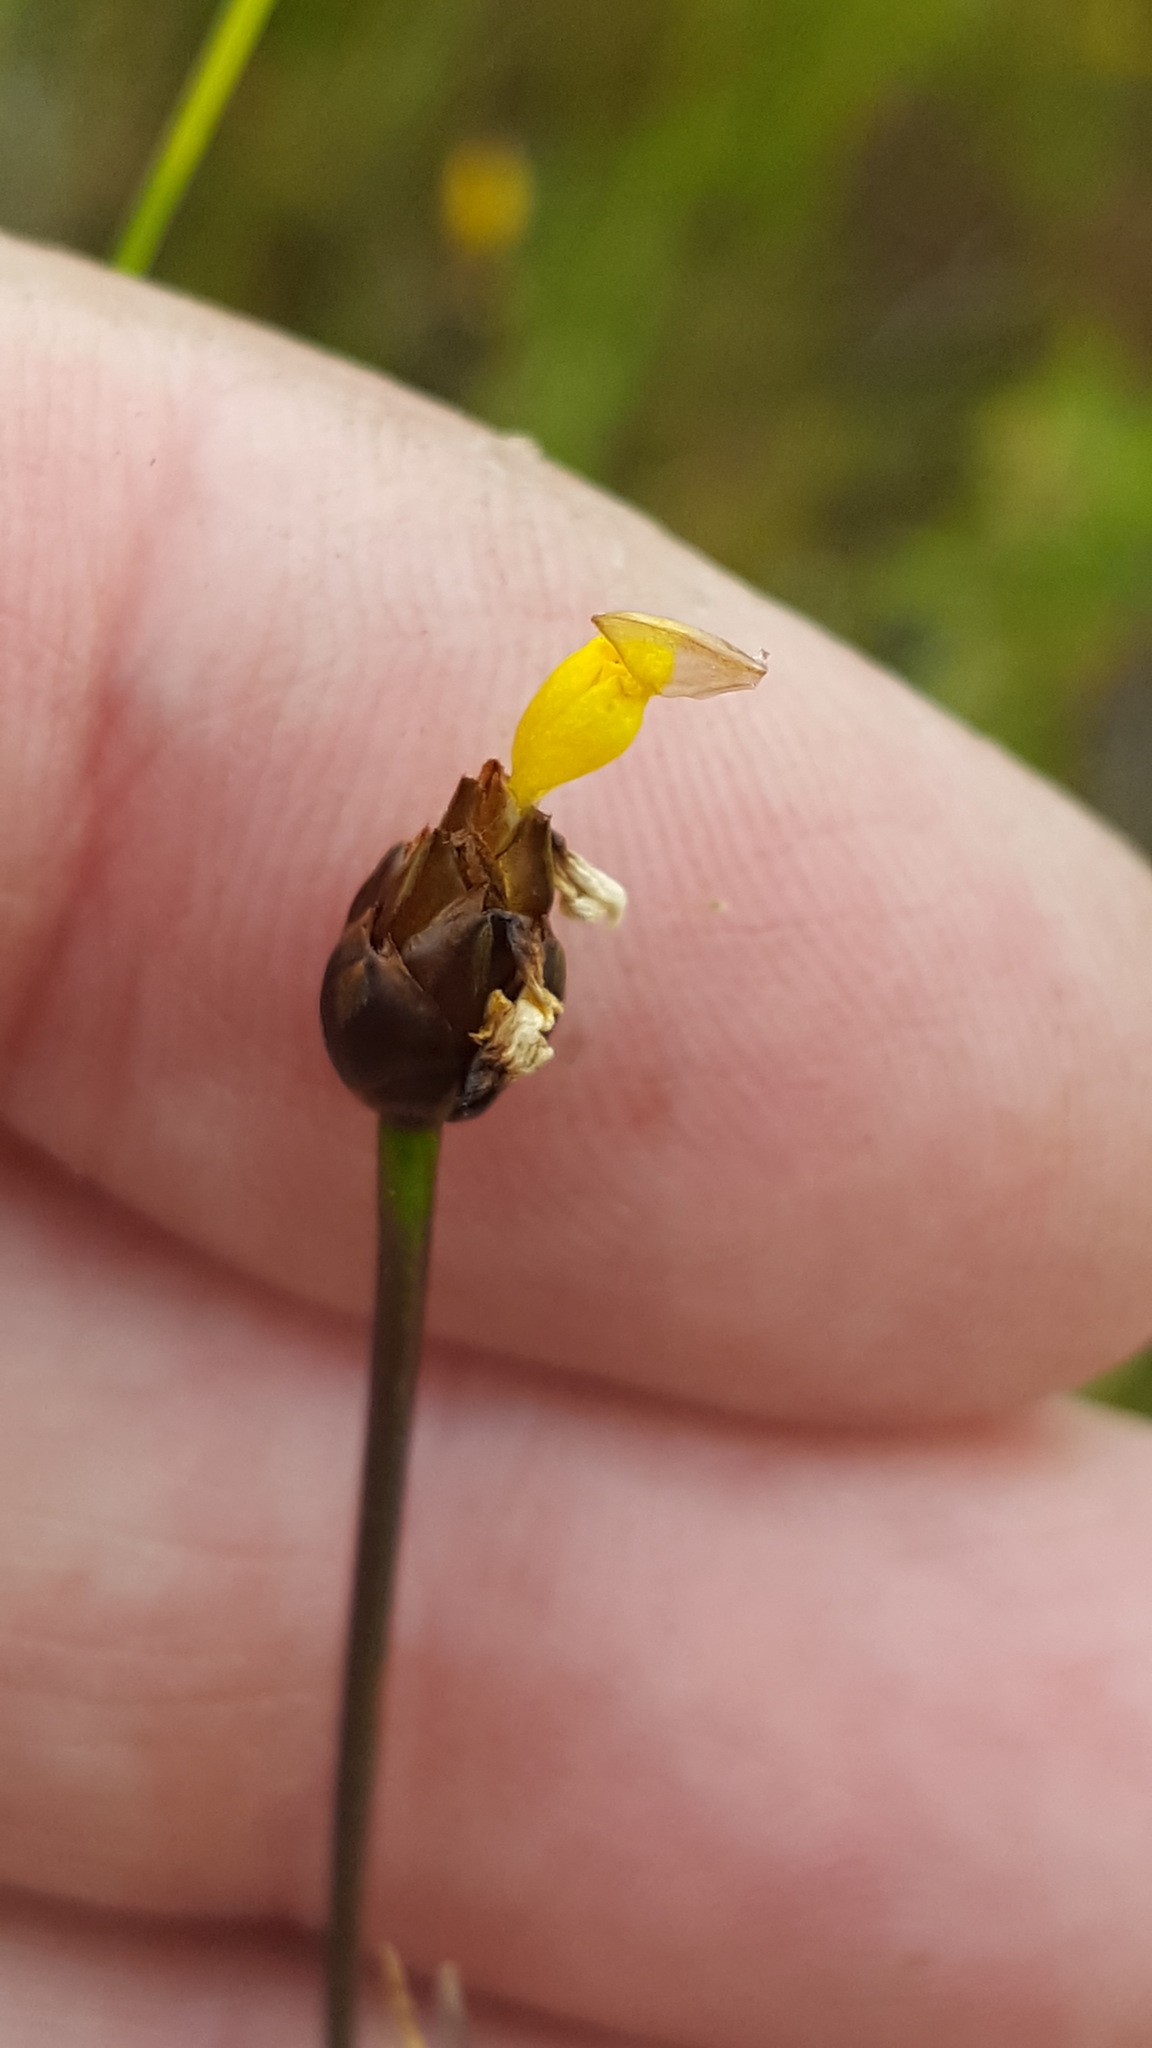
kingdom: Plantae
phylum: Tracheophyta
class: Liliopsida
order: Poales
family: Xyridaceae
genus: Xyris
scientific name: Xyris montana
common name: Northern yellow-eyed-grass
